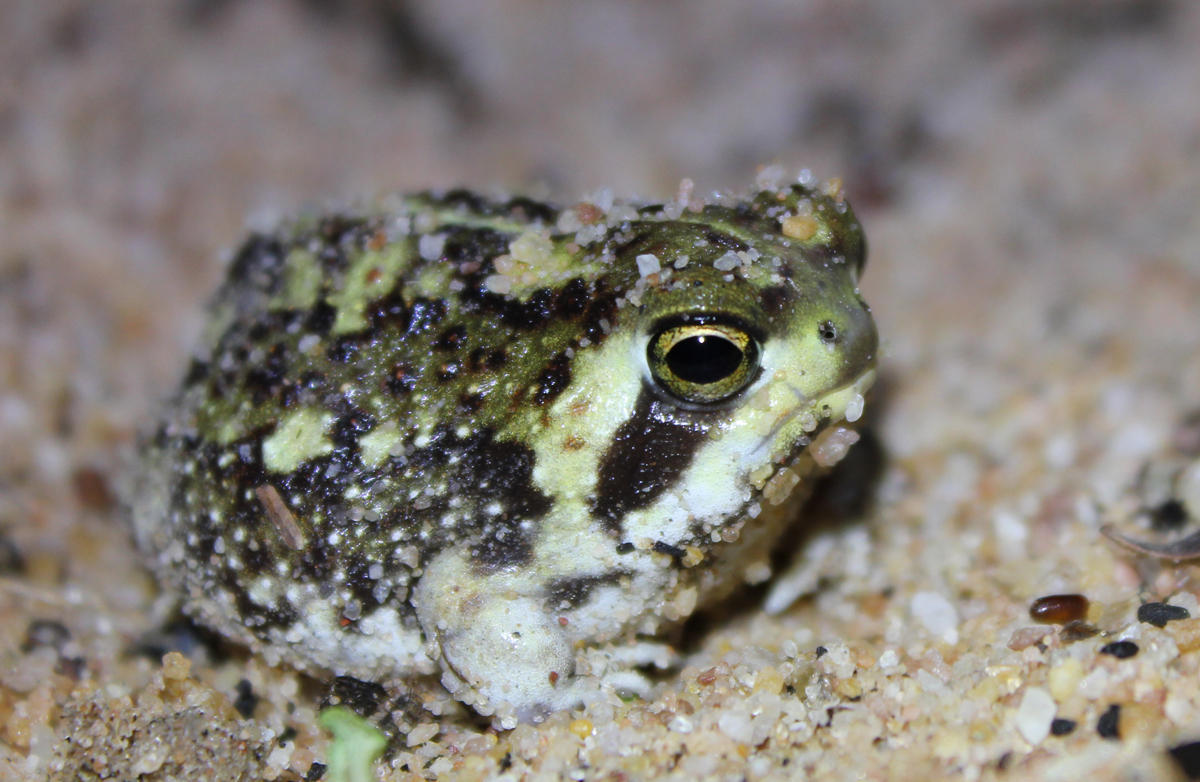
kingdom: Animalia
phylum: Chordata
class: Amphibia
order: Anura
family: Brevicipitidae
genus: Breviceps
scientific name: Breviceps adspersus
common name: Common rain frog
